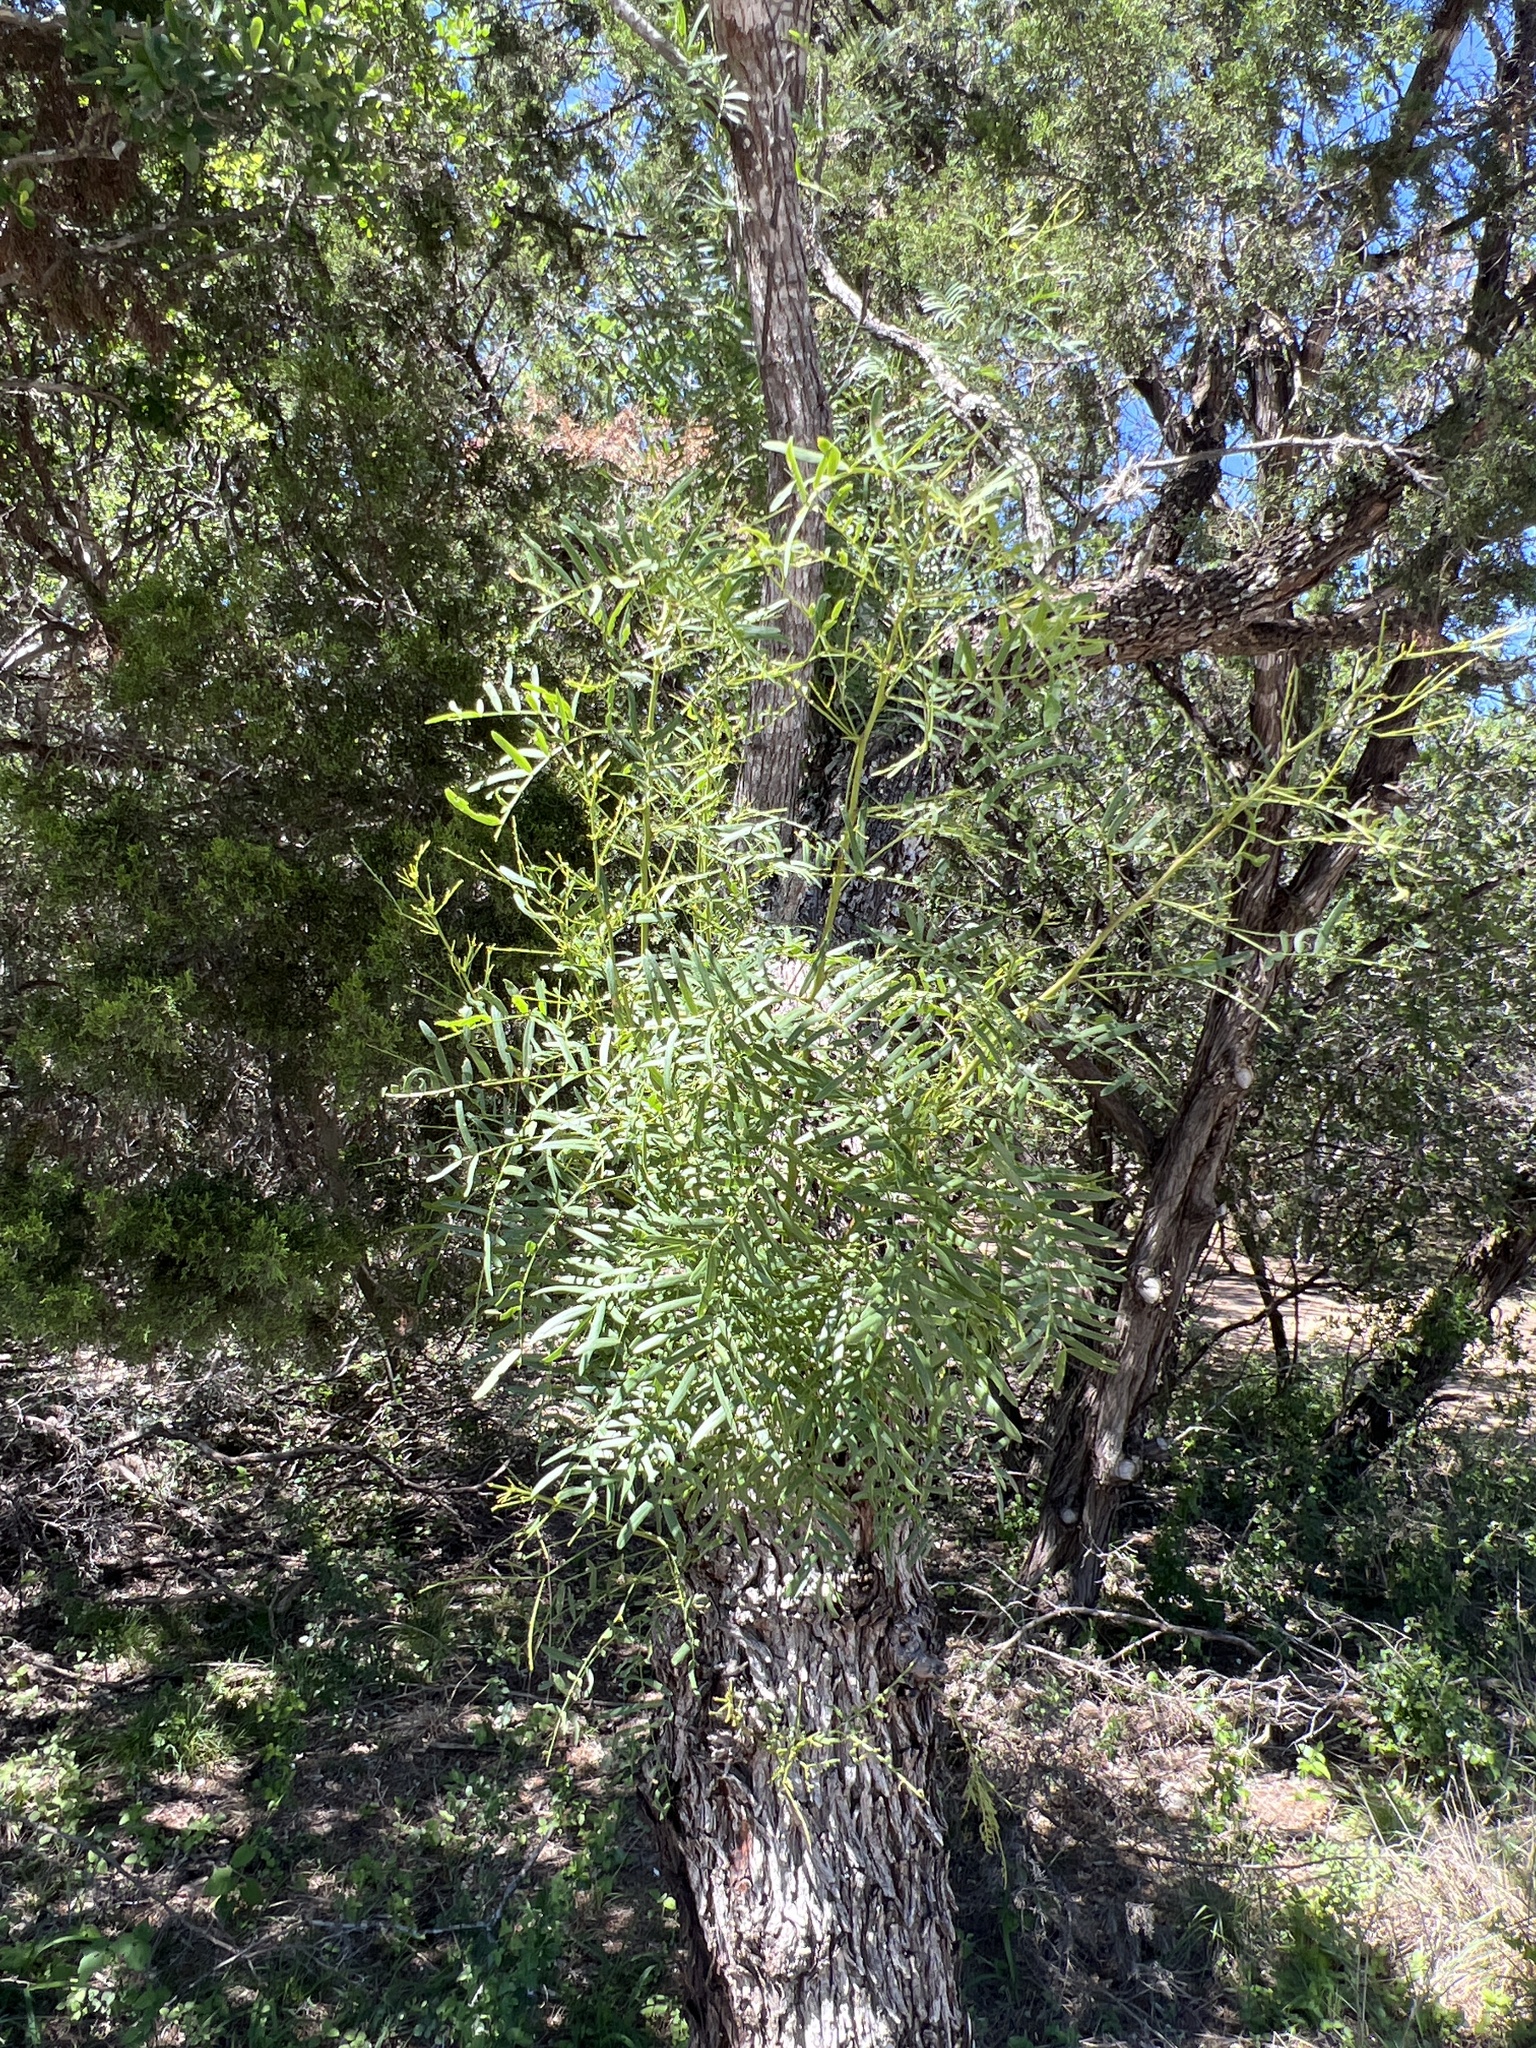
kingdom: Plantae
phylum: Tracheophyta
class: Magnoliopsida
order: Fabales
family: Fabaceae
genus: Prosopis
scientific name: Prosopis glandulosa
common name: Honey mesquite
